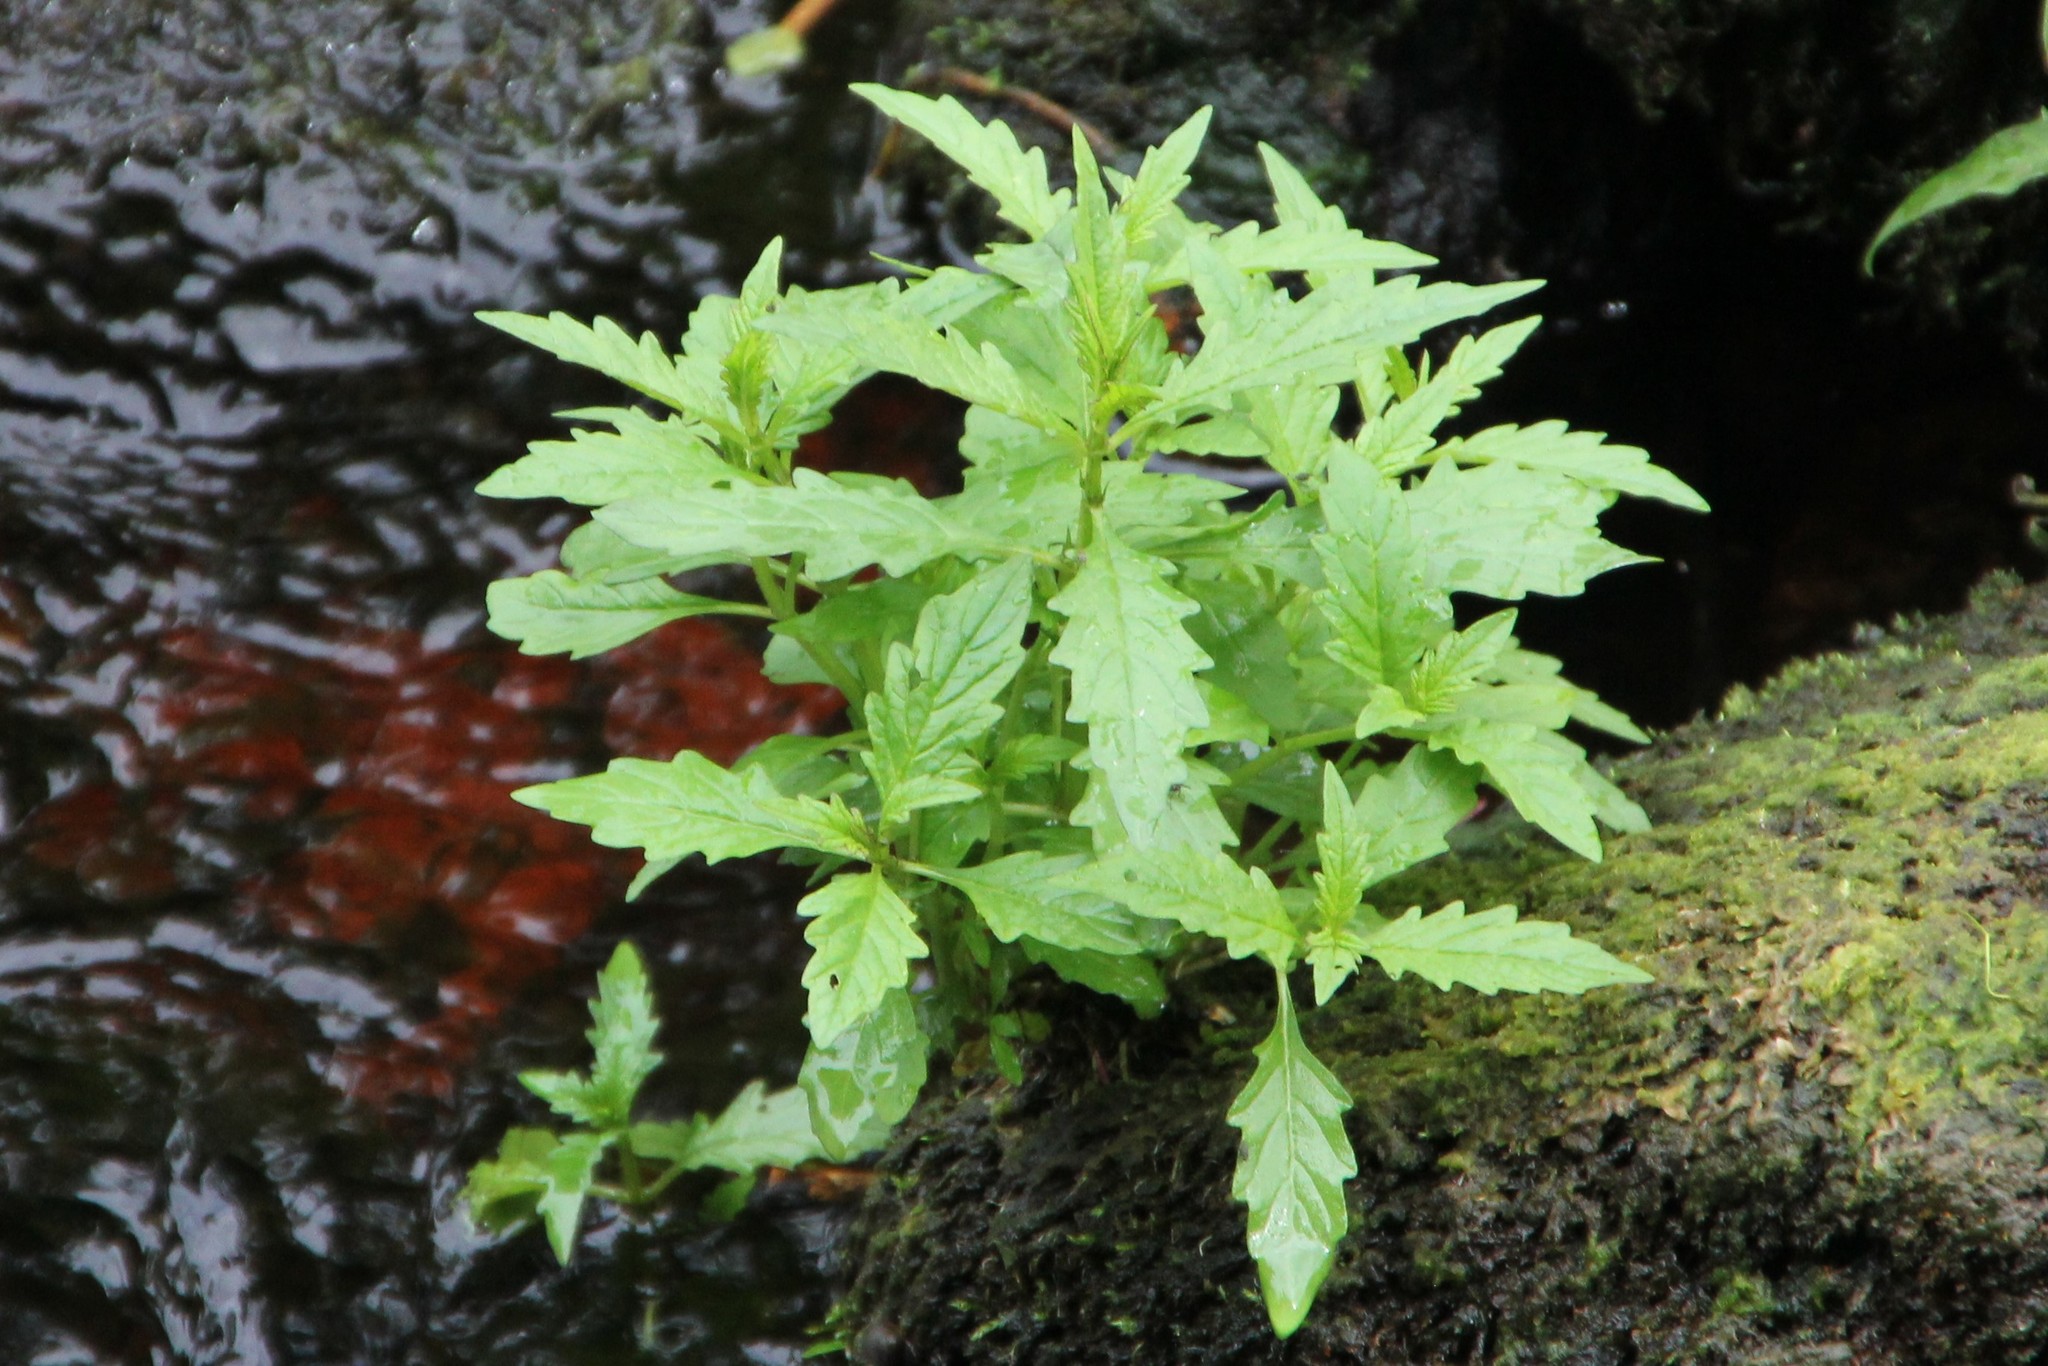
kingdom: Plantae
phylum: Tracheophyta
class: Magnoliopsida
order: Lamiales
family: Lamiaceae
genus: Lycopus
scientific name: Lycopus europaeus
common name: European bugleweed
